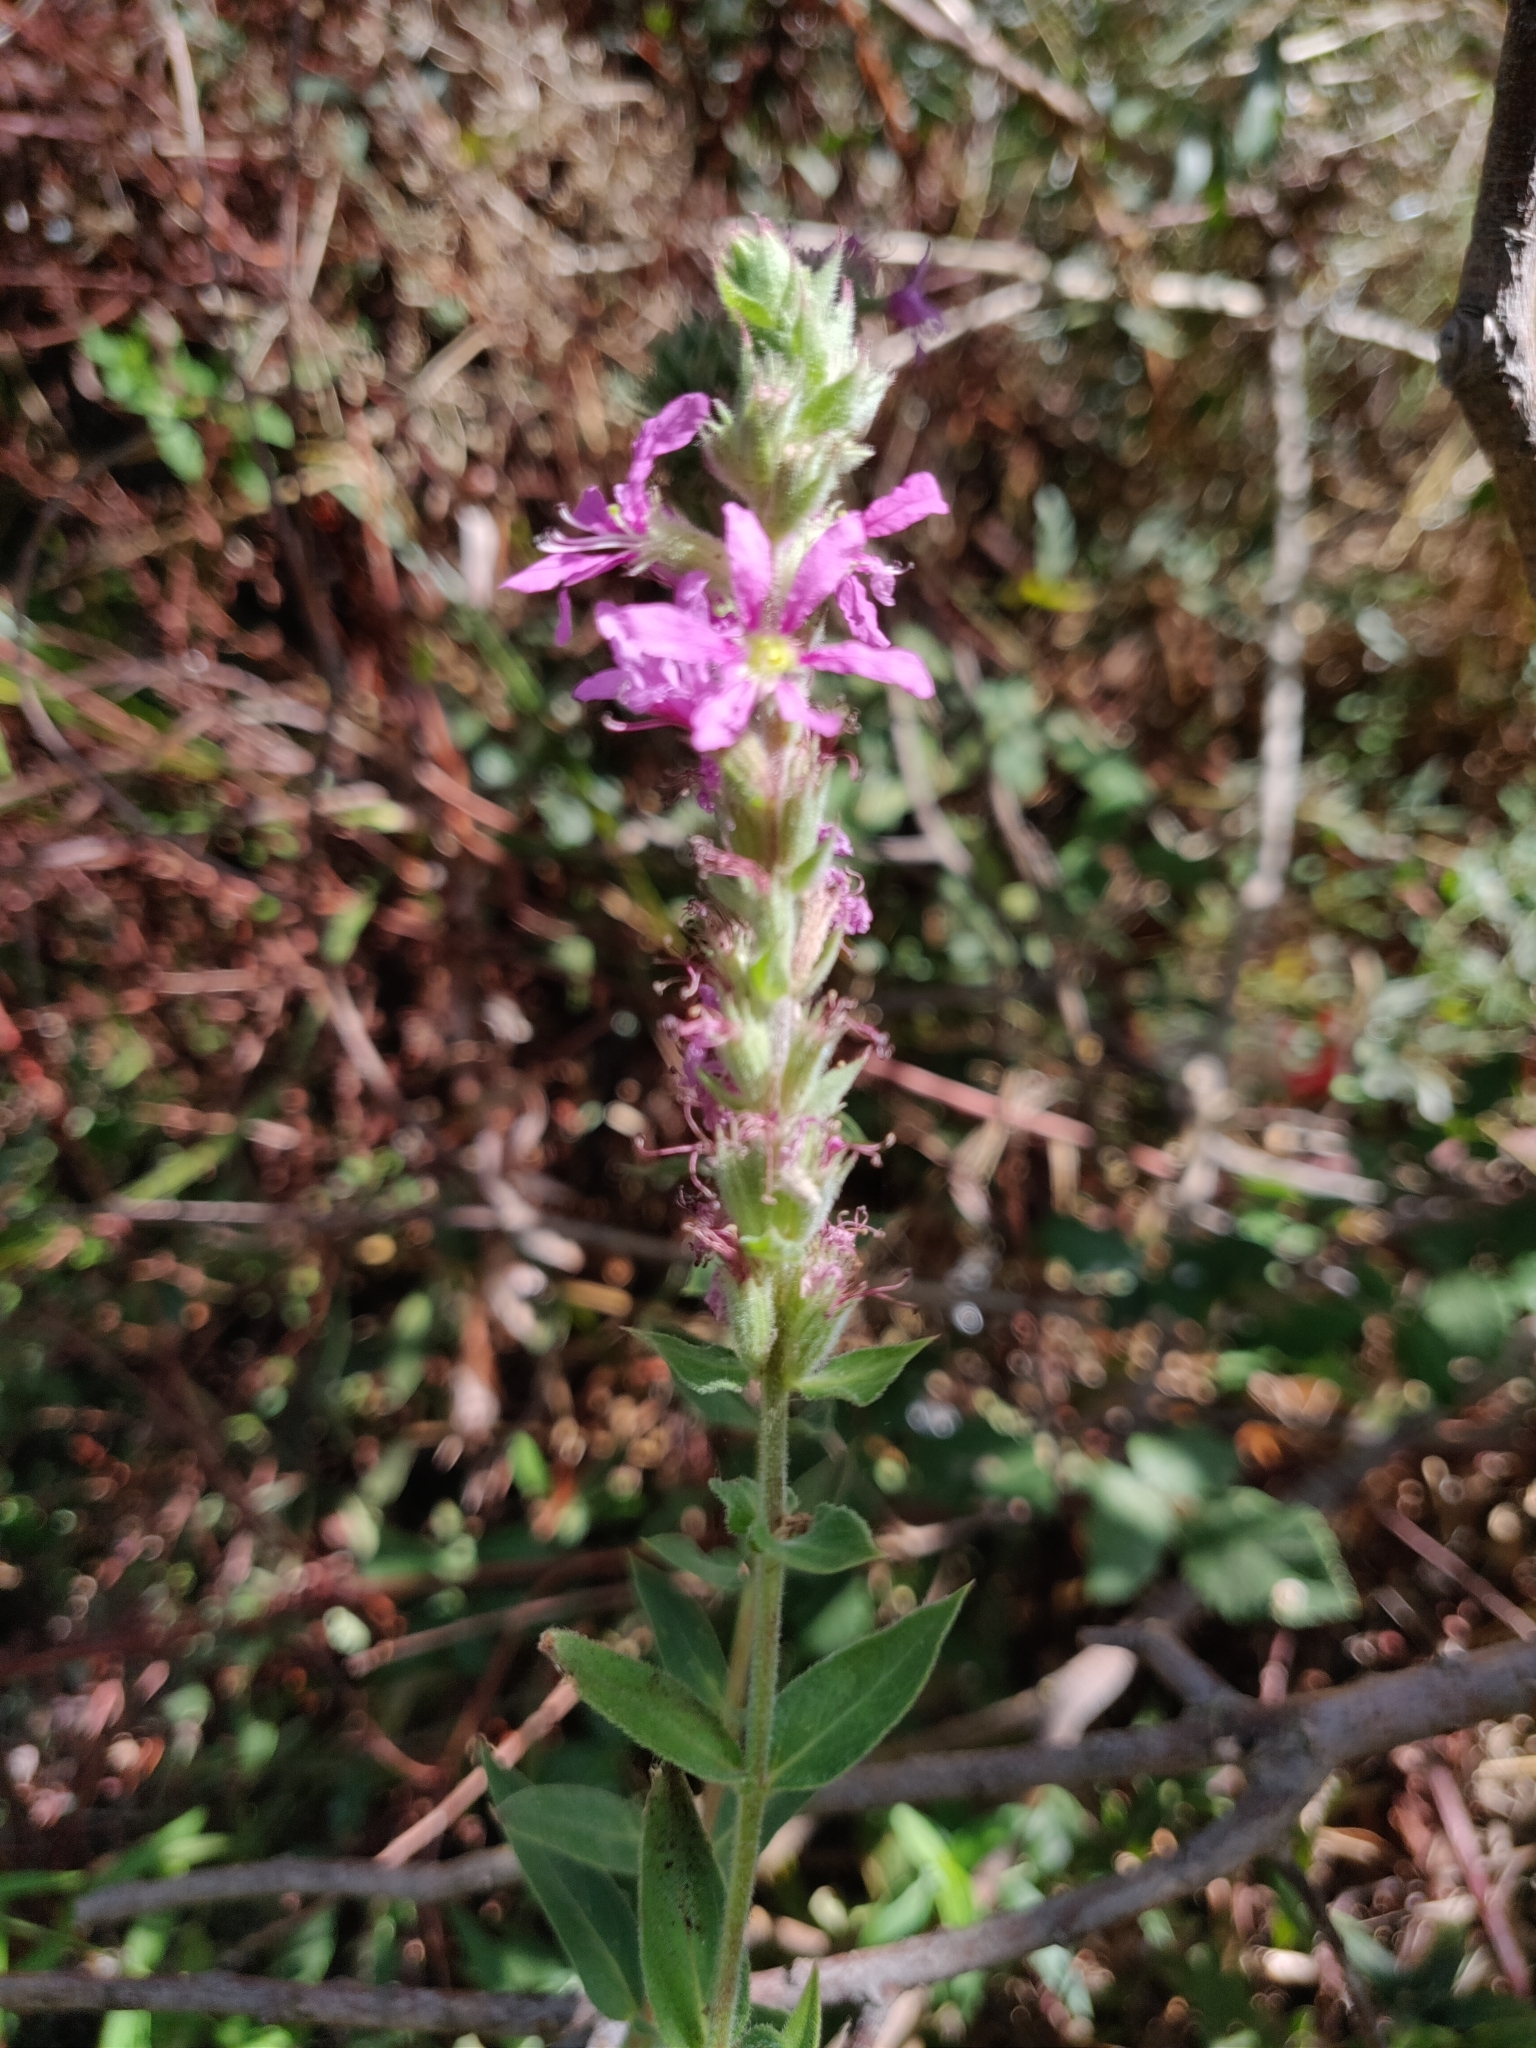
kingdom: Plantae
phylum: Tracheophyta
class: Magnoliopsida
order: Myrtales
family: Lythraceae
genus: Lythrum
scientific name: Lythrum salicaria
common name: Purple loosestrife
